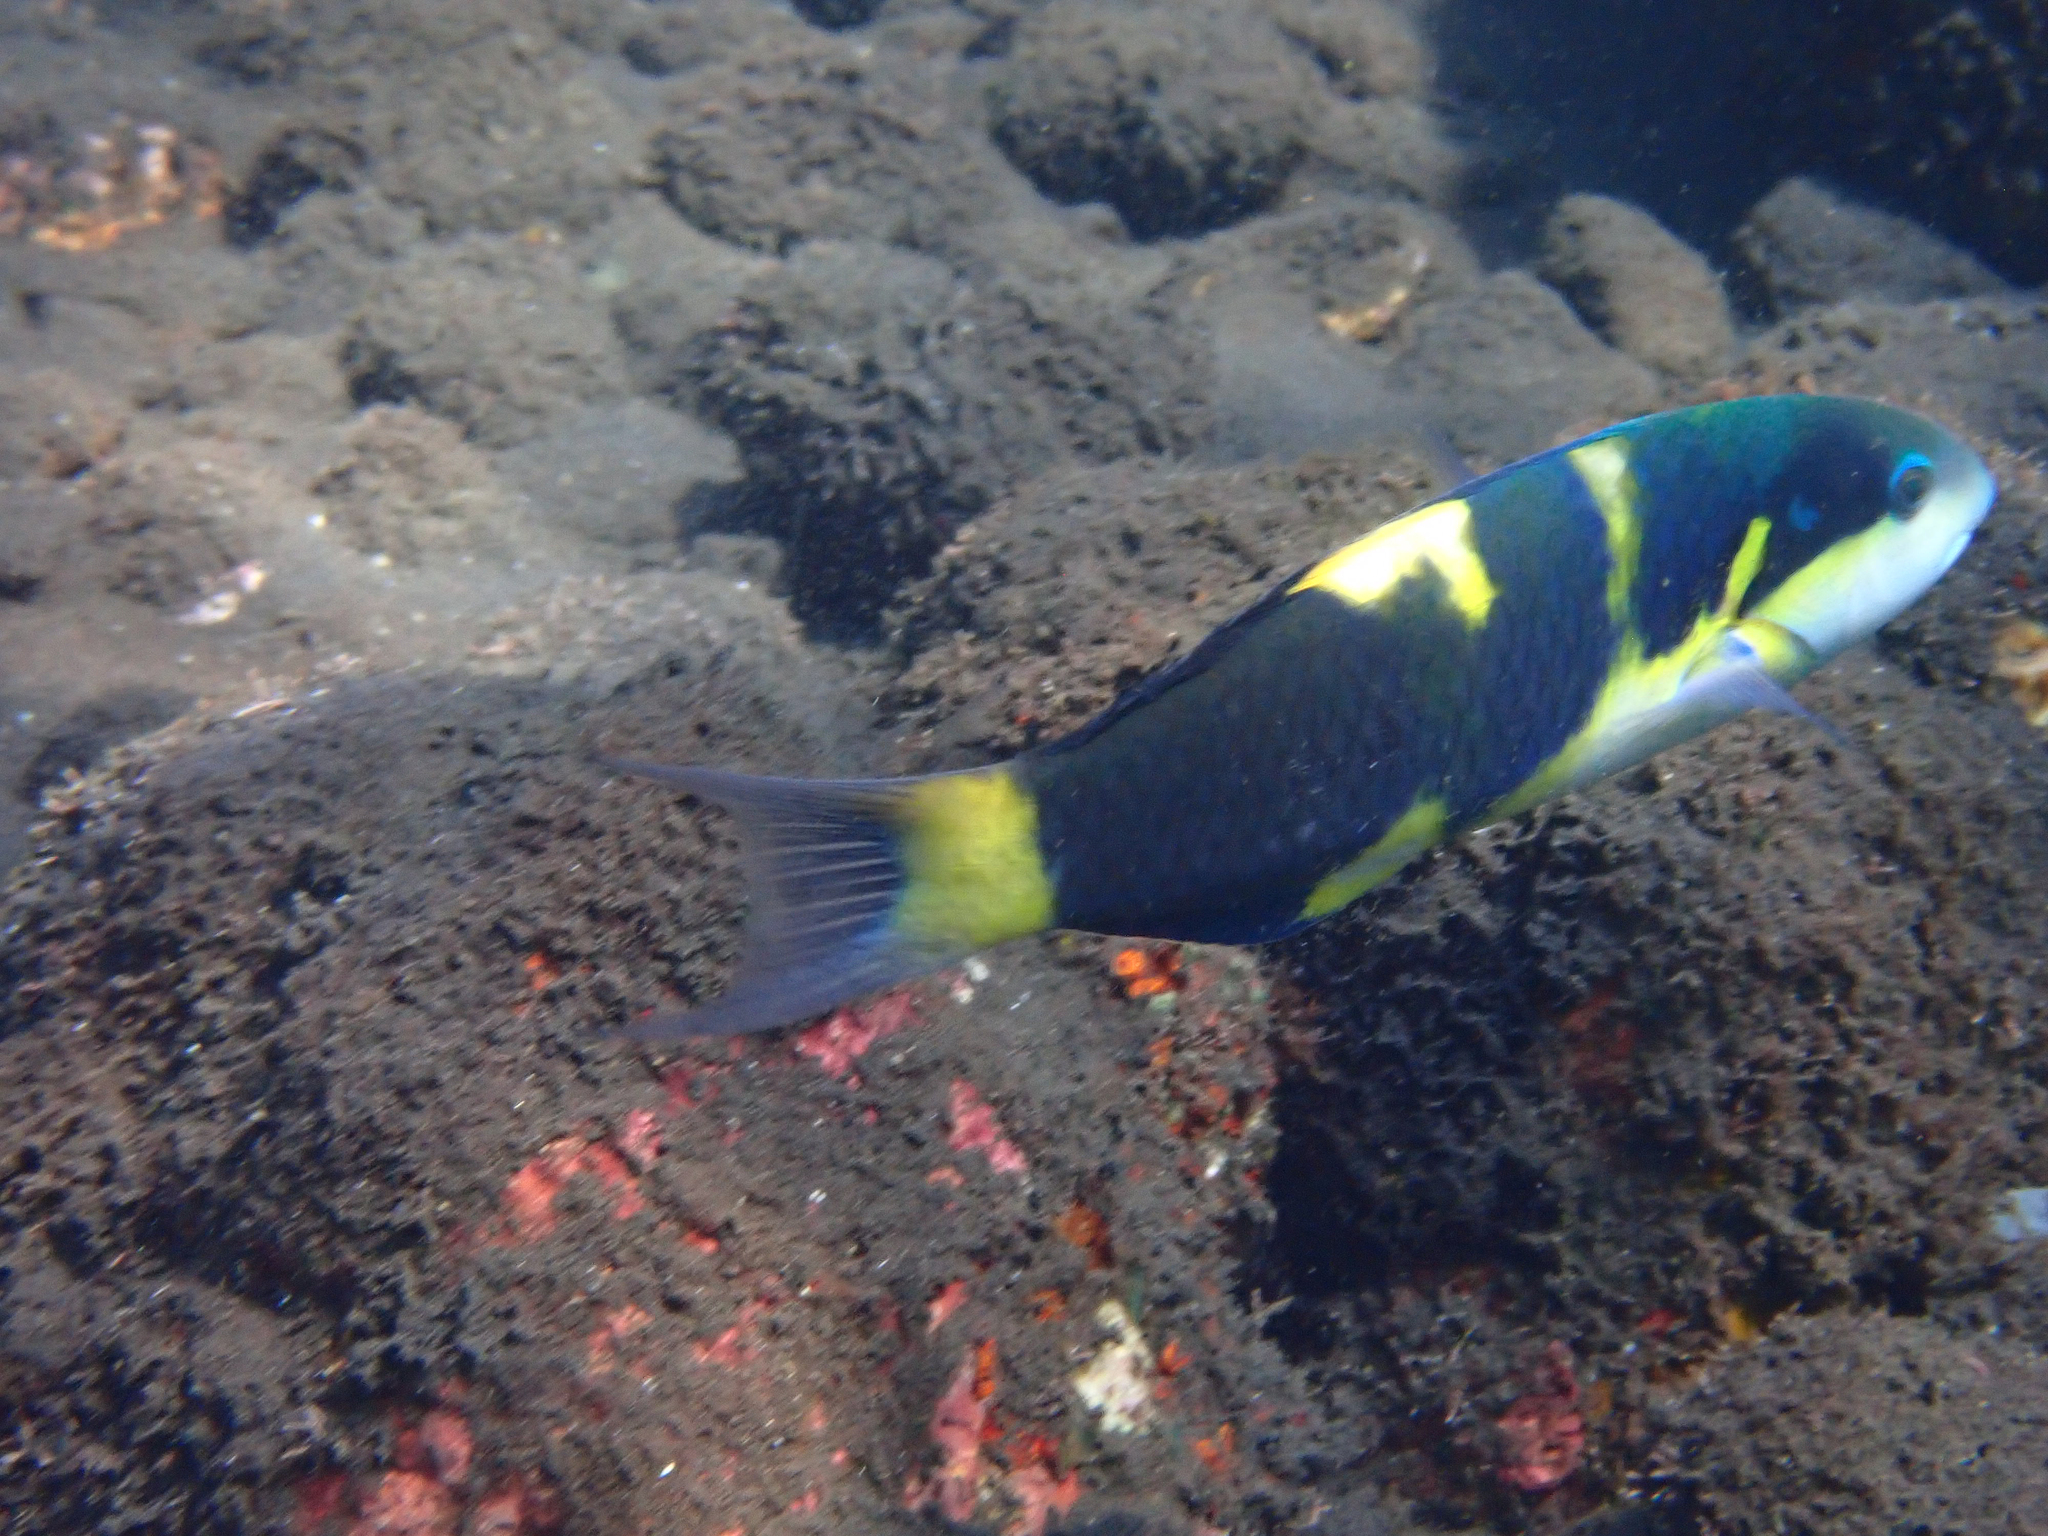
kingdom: Animalia
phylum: Chordata
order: Perciformes
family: Labridae
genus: Thalassoma
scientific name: Thalassoma jansenii
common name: Jansen's wrasse
